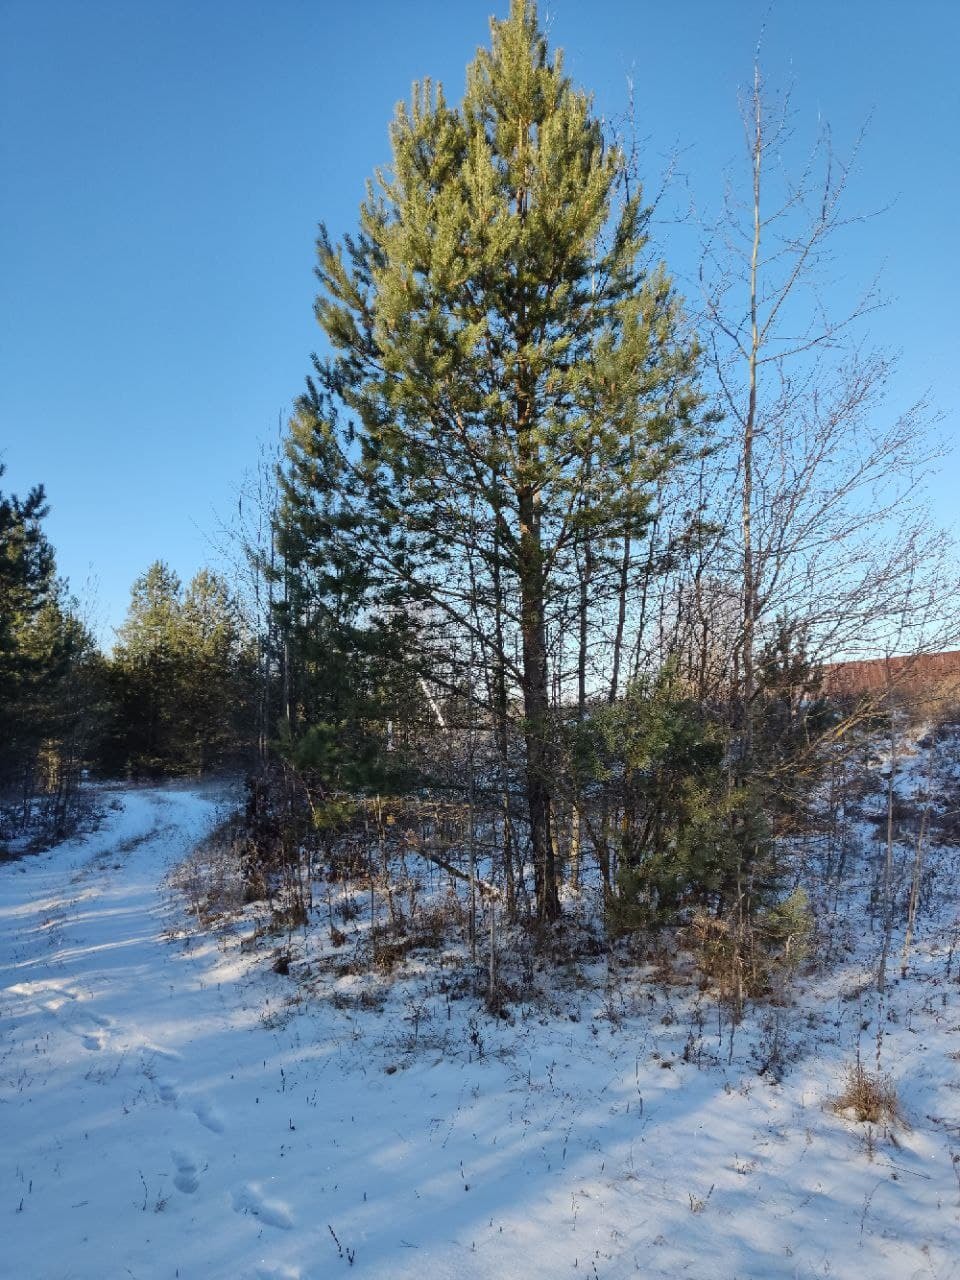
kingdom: Plantae
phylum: Tracheophyta
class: Pinopsida
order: Pinales
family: Pinaceae
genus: Pinus
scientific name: Pinus sylvestris
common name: Scots pine
